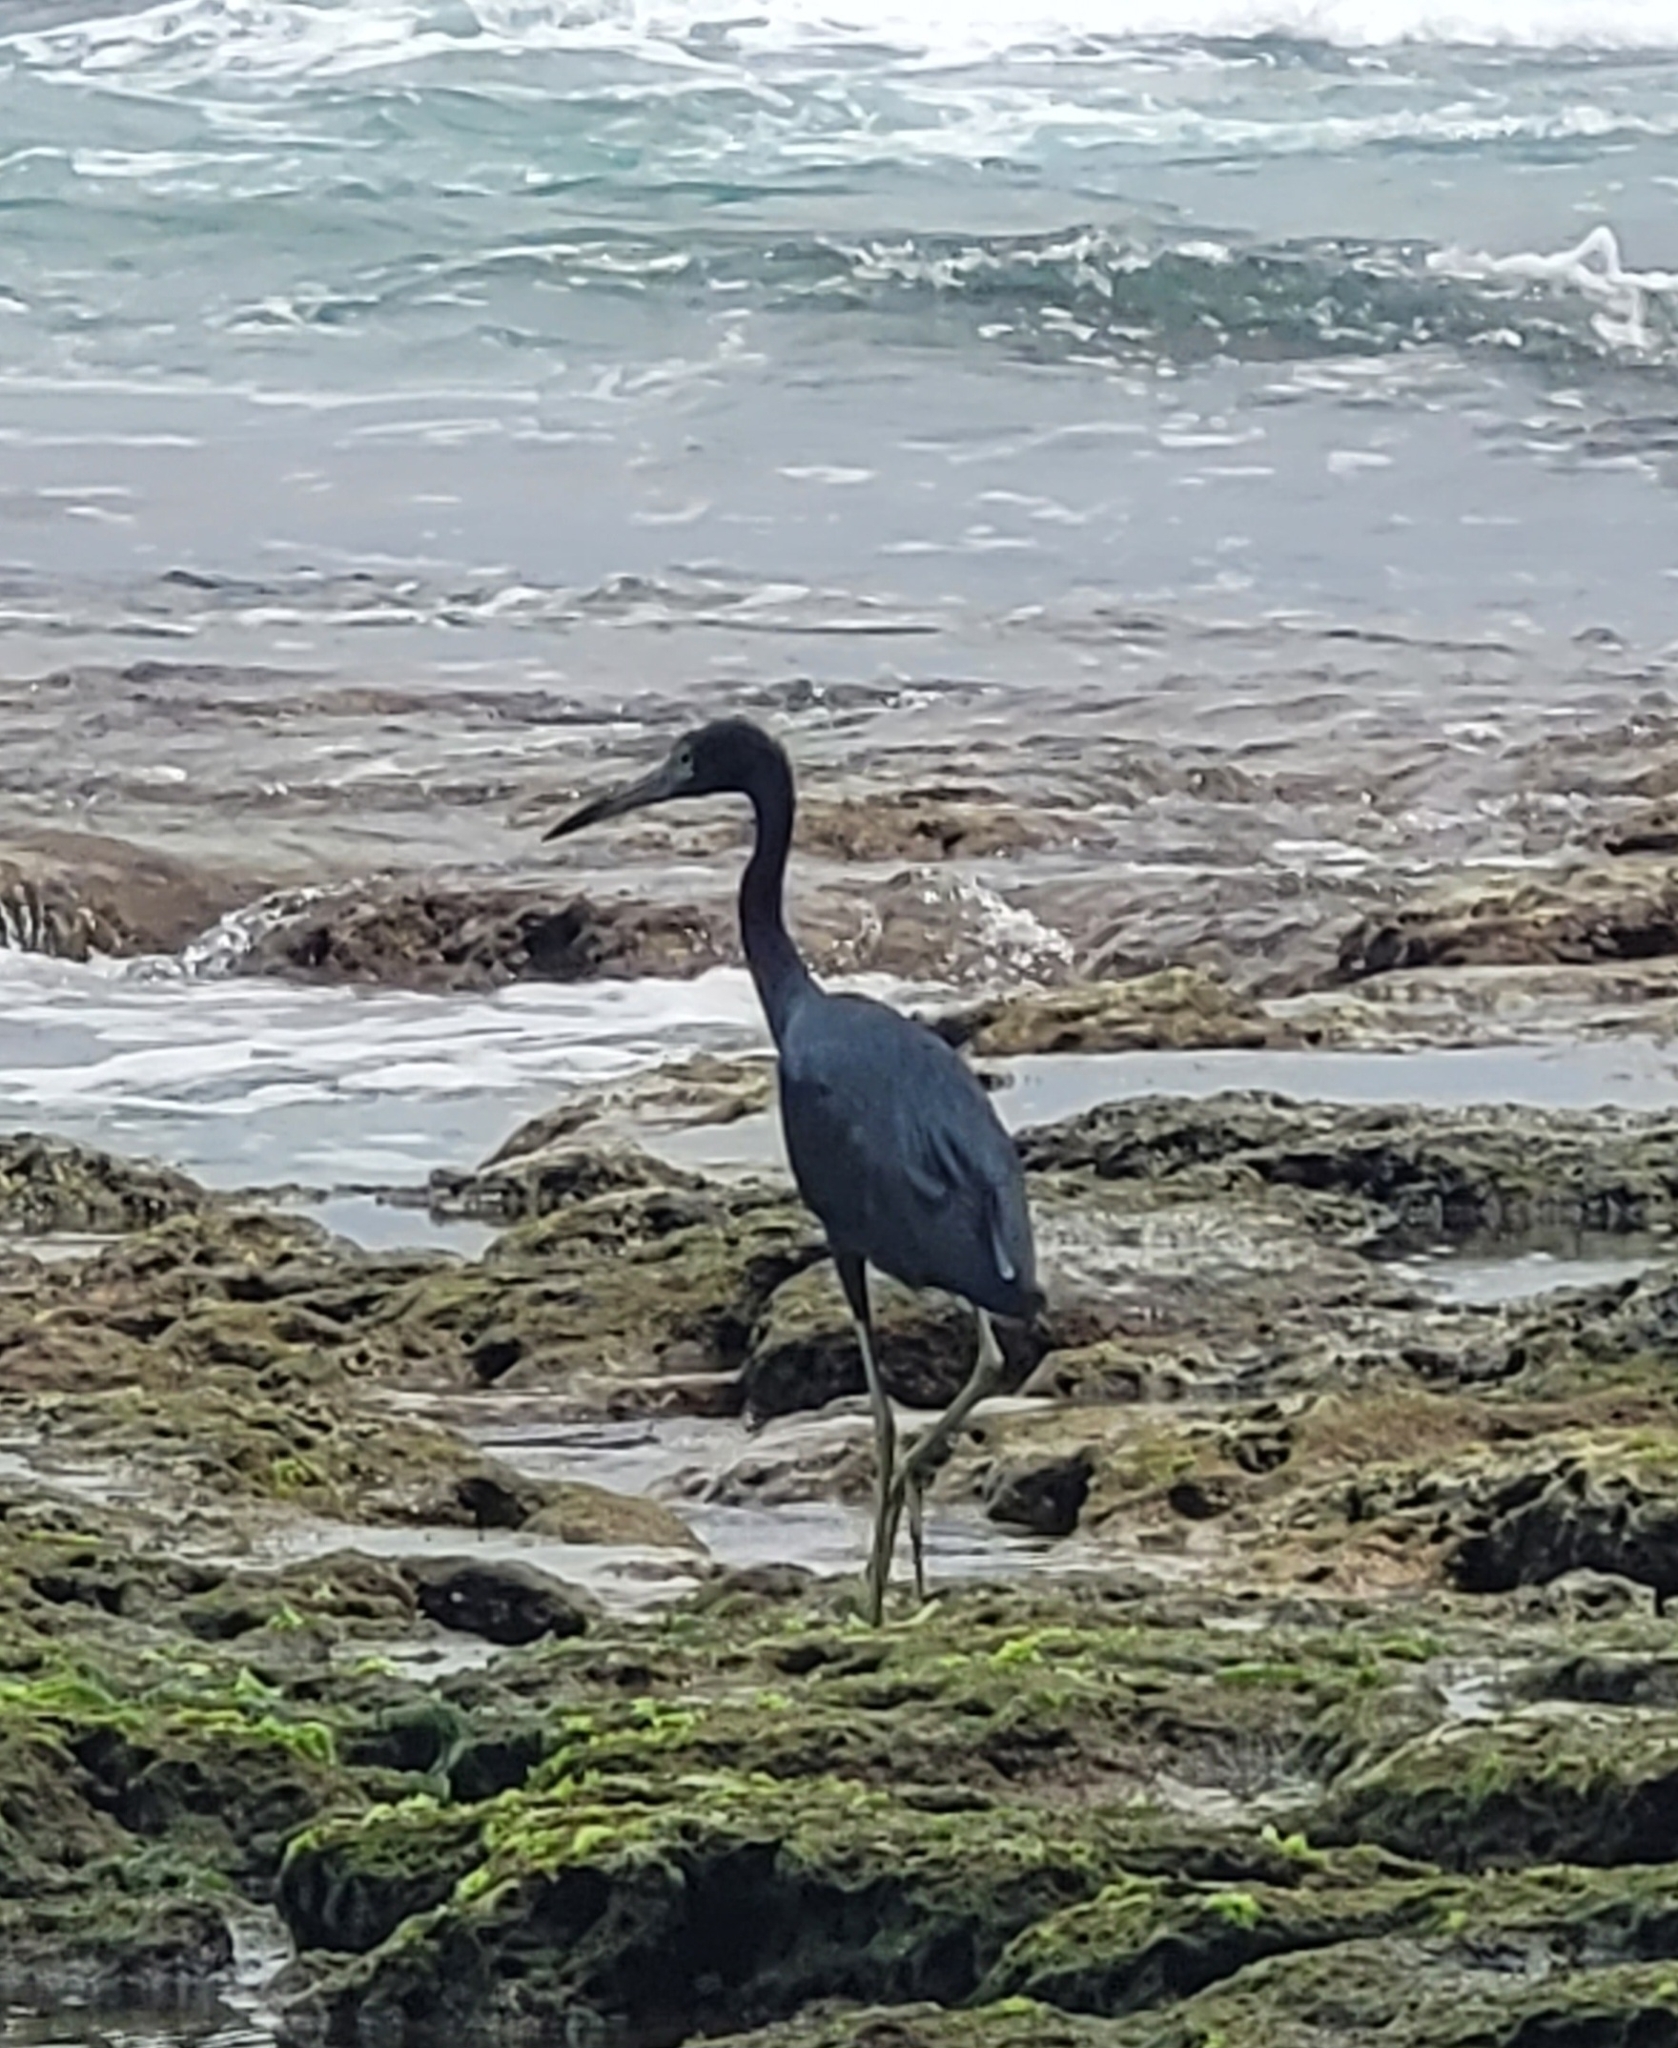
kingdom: Animalia
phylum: Chordata
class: Aves
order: Pelecaniformes
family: Ardeidae
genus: Egretta
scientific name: Egretta caerulea
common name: Little blue heron
